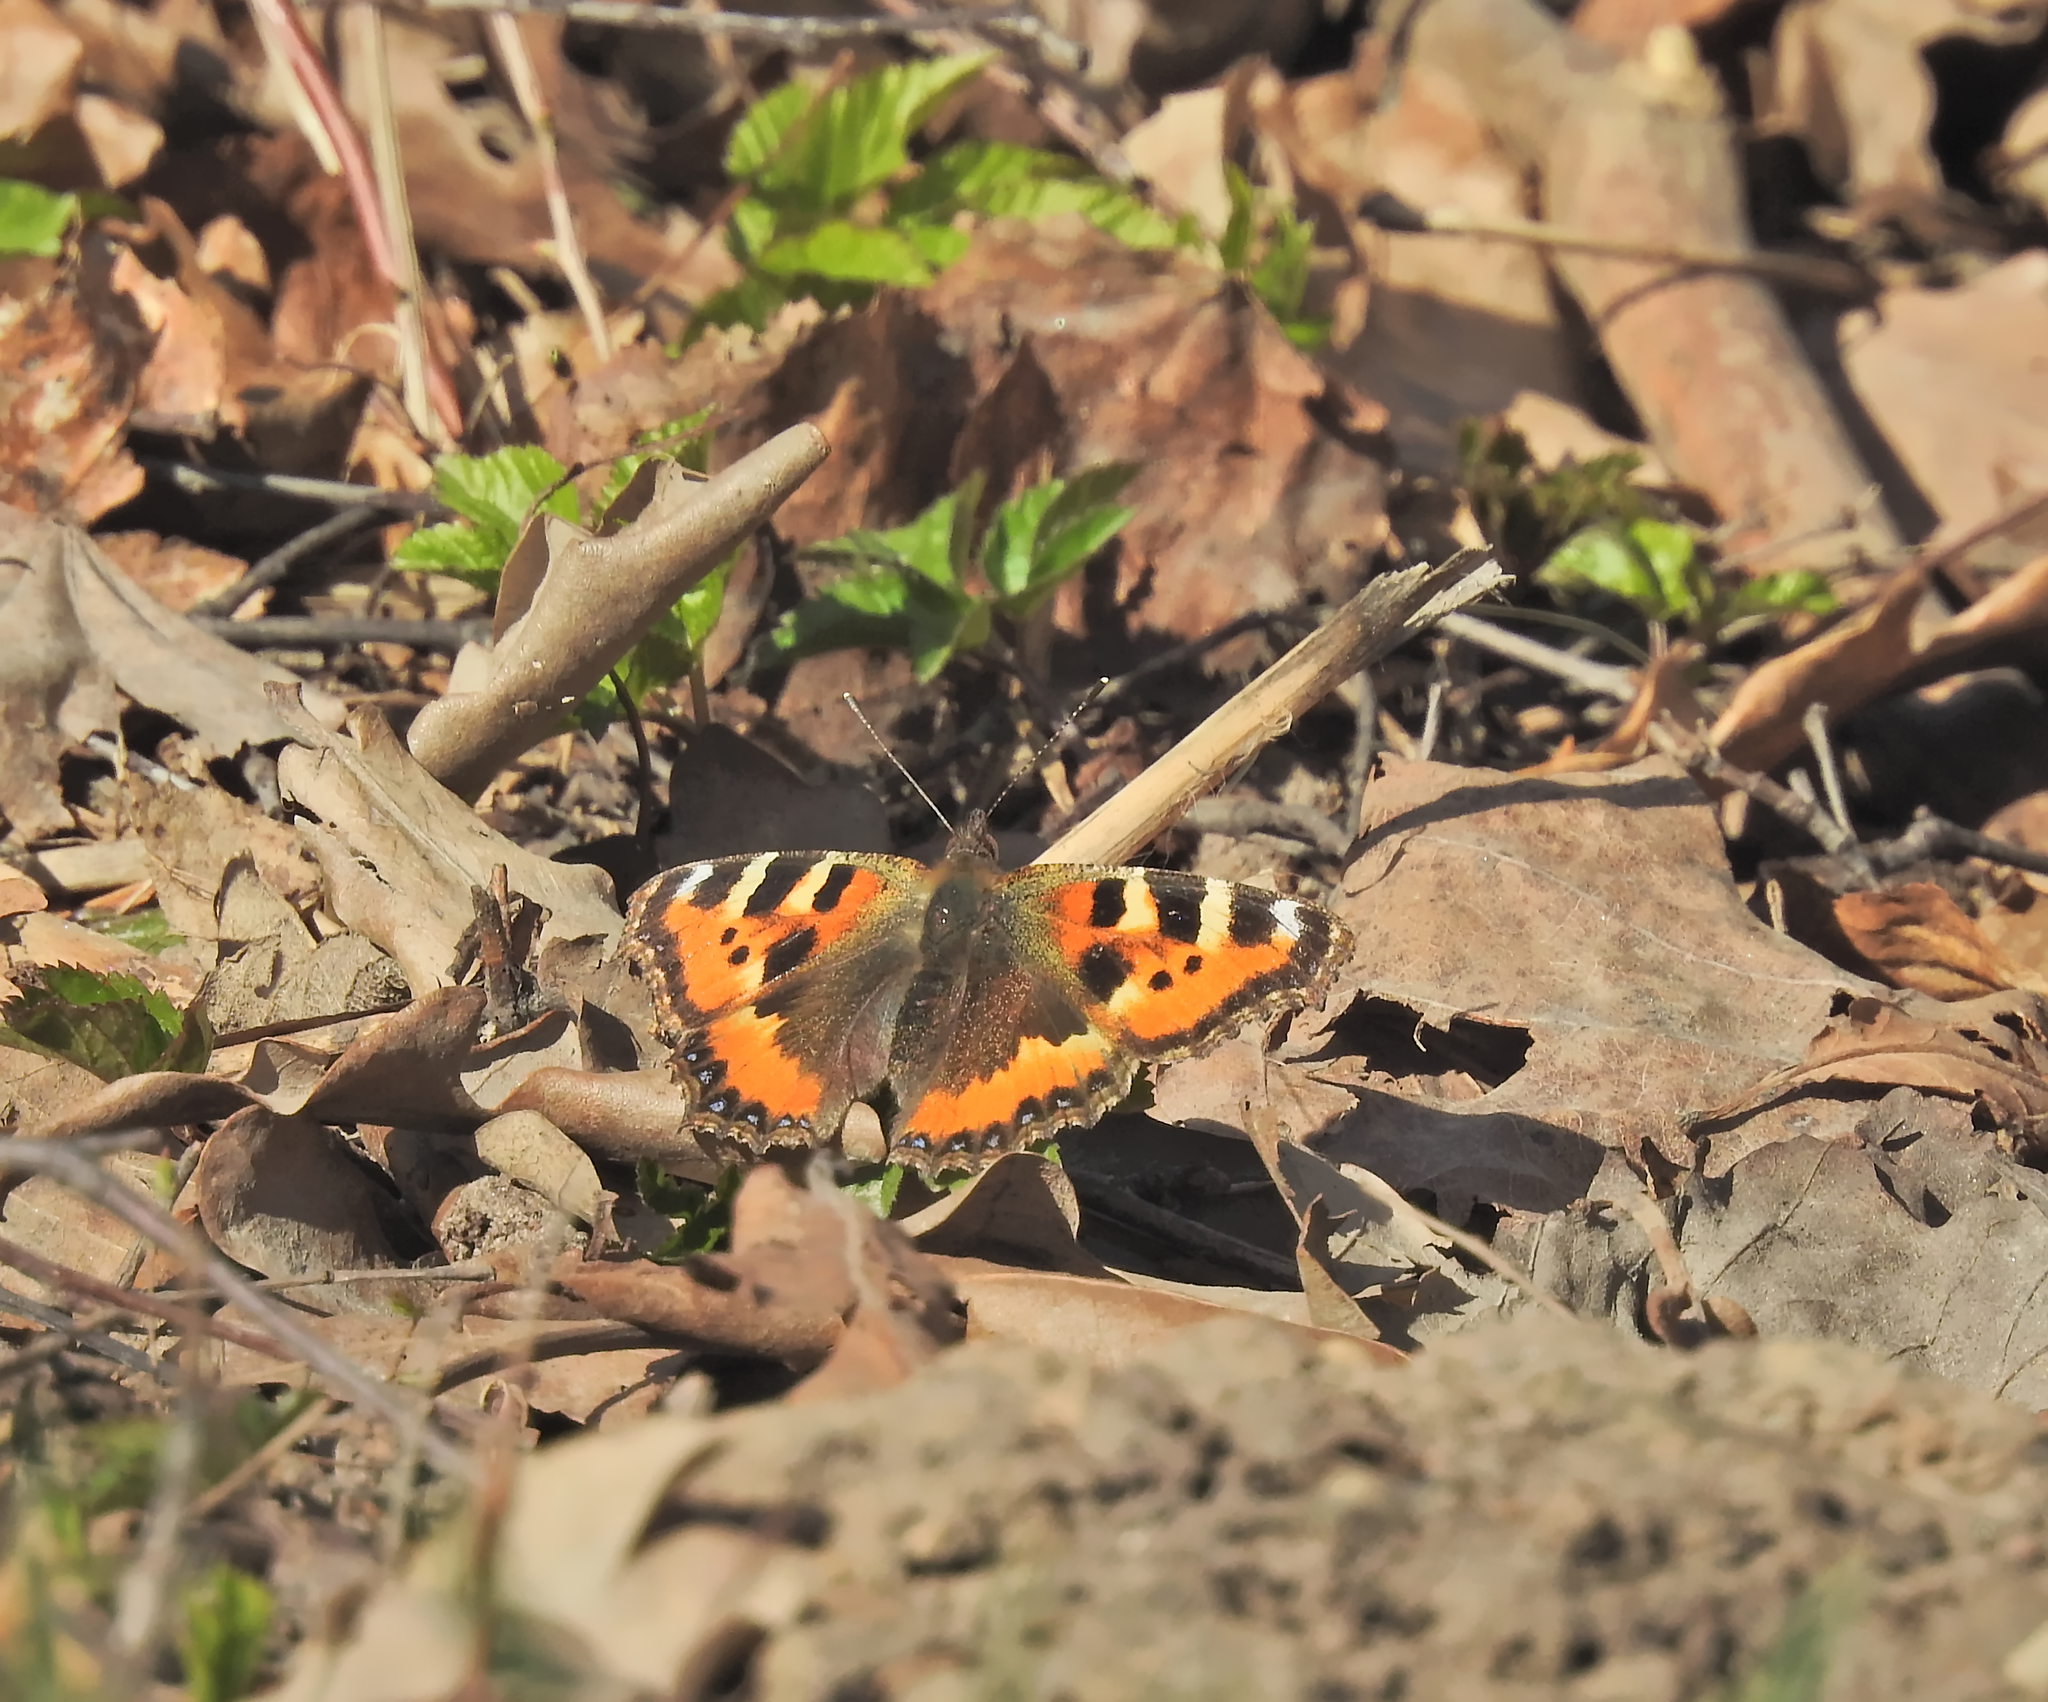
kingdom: Animalia
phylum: Arthropoda
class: Insecta
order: Lepidoptera
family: Nymphalidae
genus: Aglais
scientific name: Aglais urticae
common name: Small tortoiseshell
